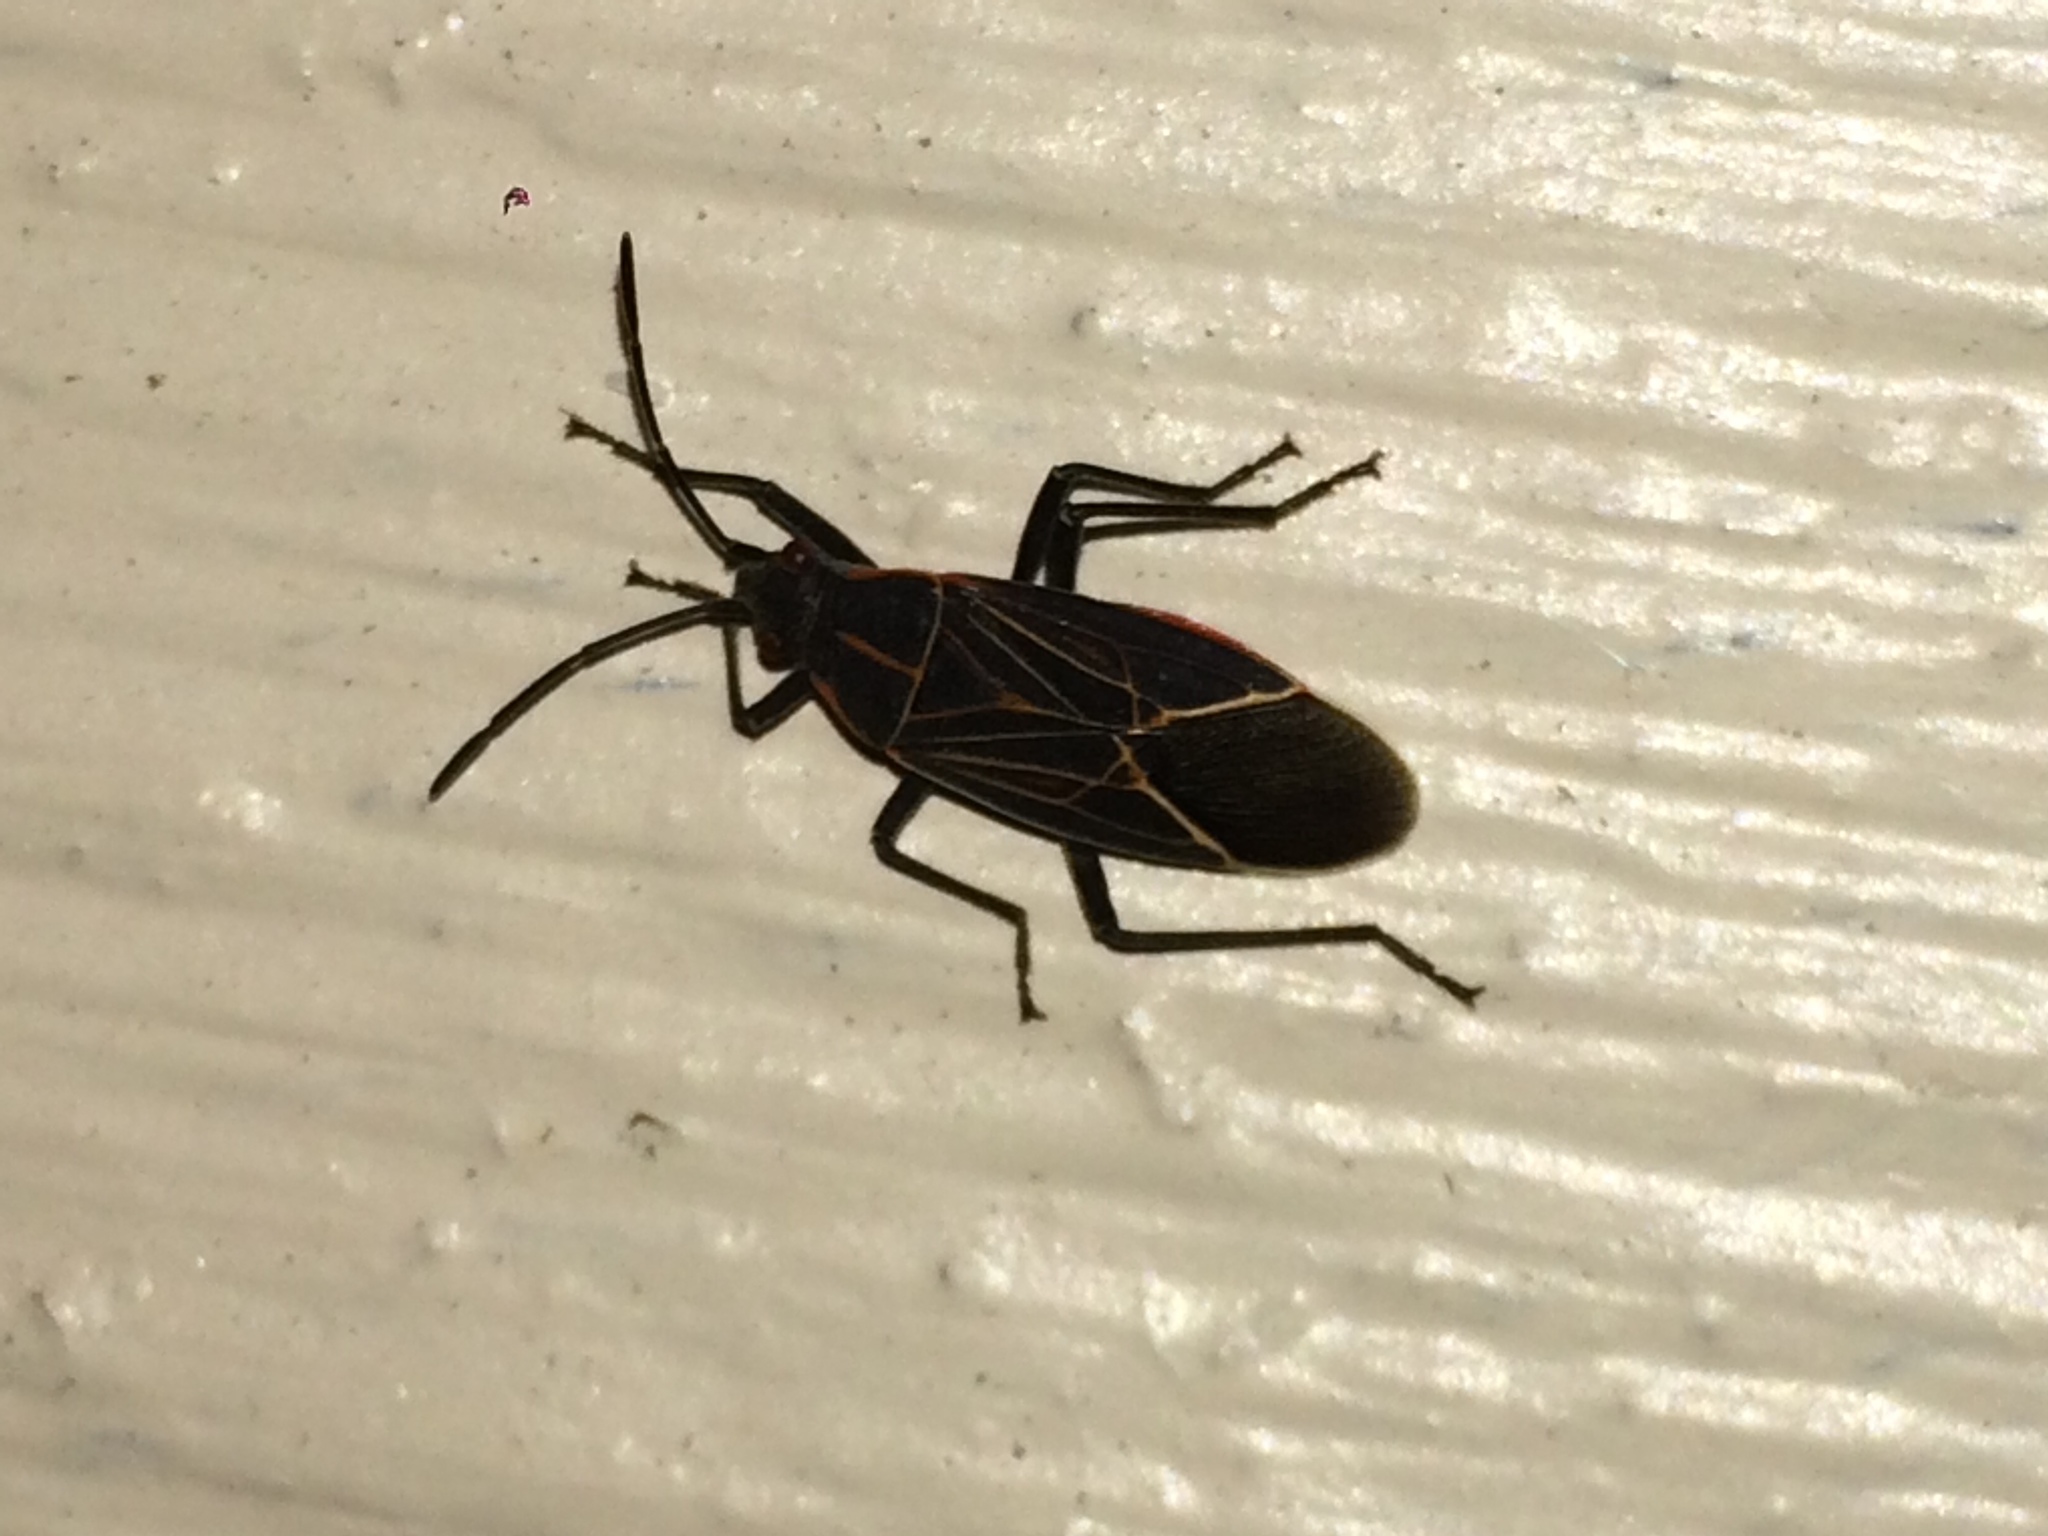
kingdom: Animalia
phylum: Arthropoda
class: Insecta
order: Hemiptera
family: Rhopalidae
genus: Boisea
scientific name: Boisea rubrolineata
